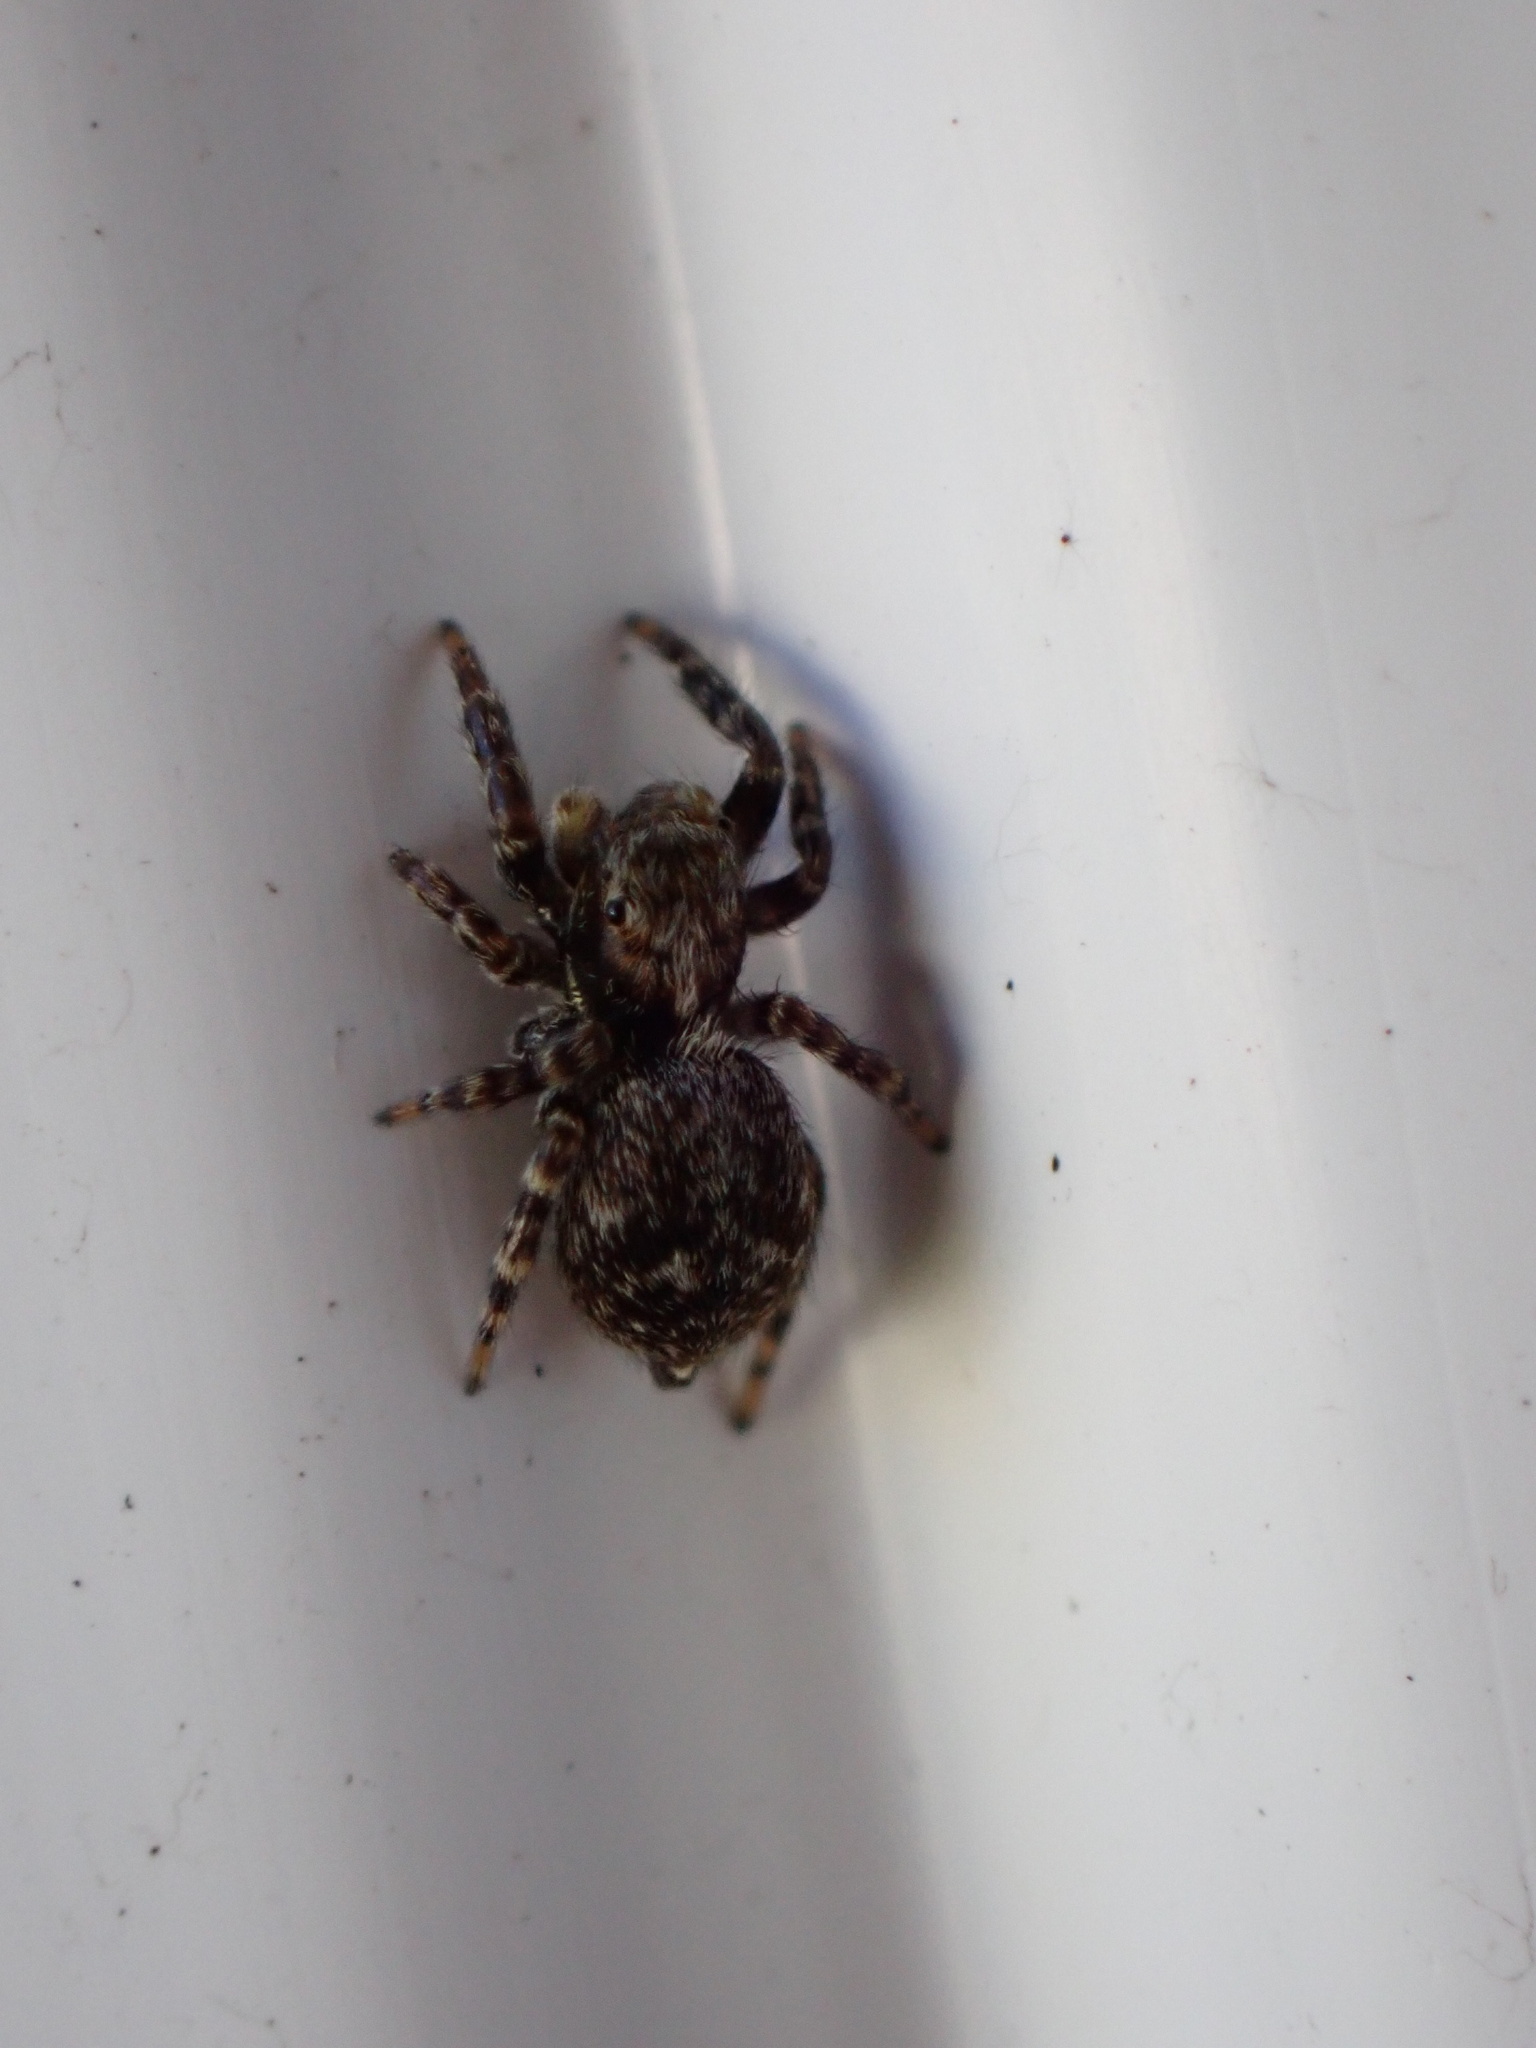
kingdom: Animalia
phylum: Arthropoda
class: Arachnida
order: Araneae
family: Salticidae
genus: Pseudeuophrys
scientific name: Pseudeuophrys erratica
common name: Jumping spider
